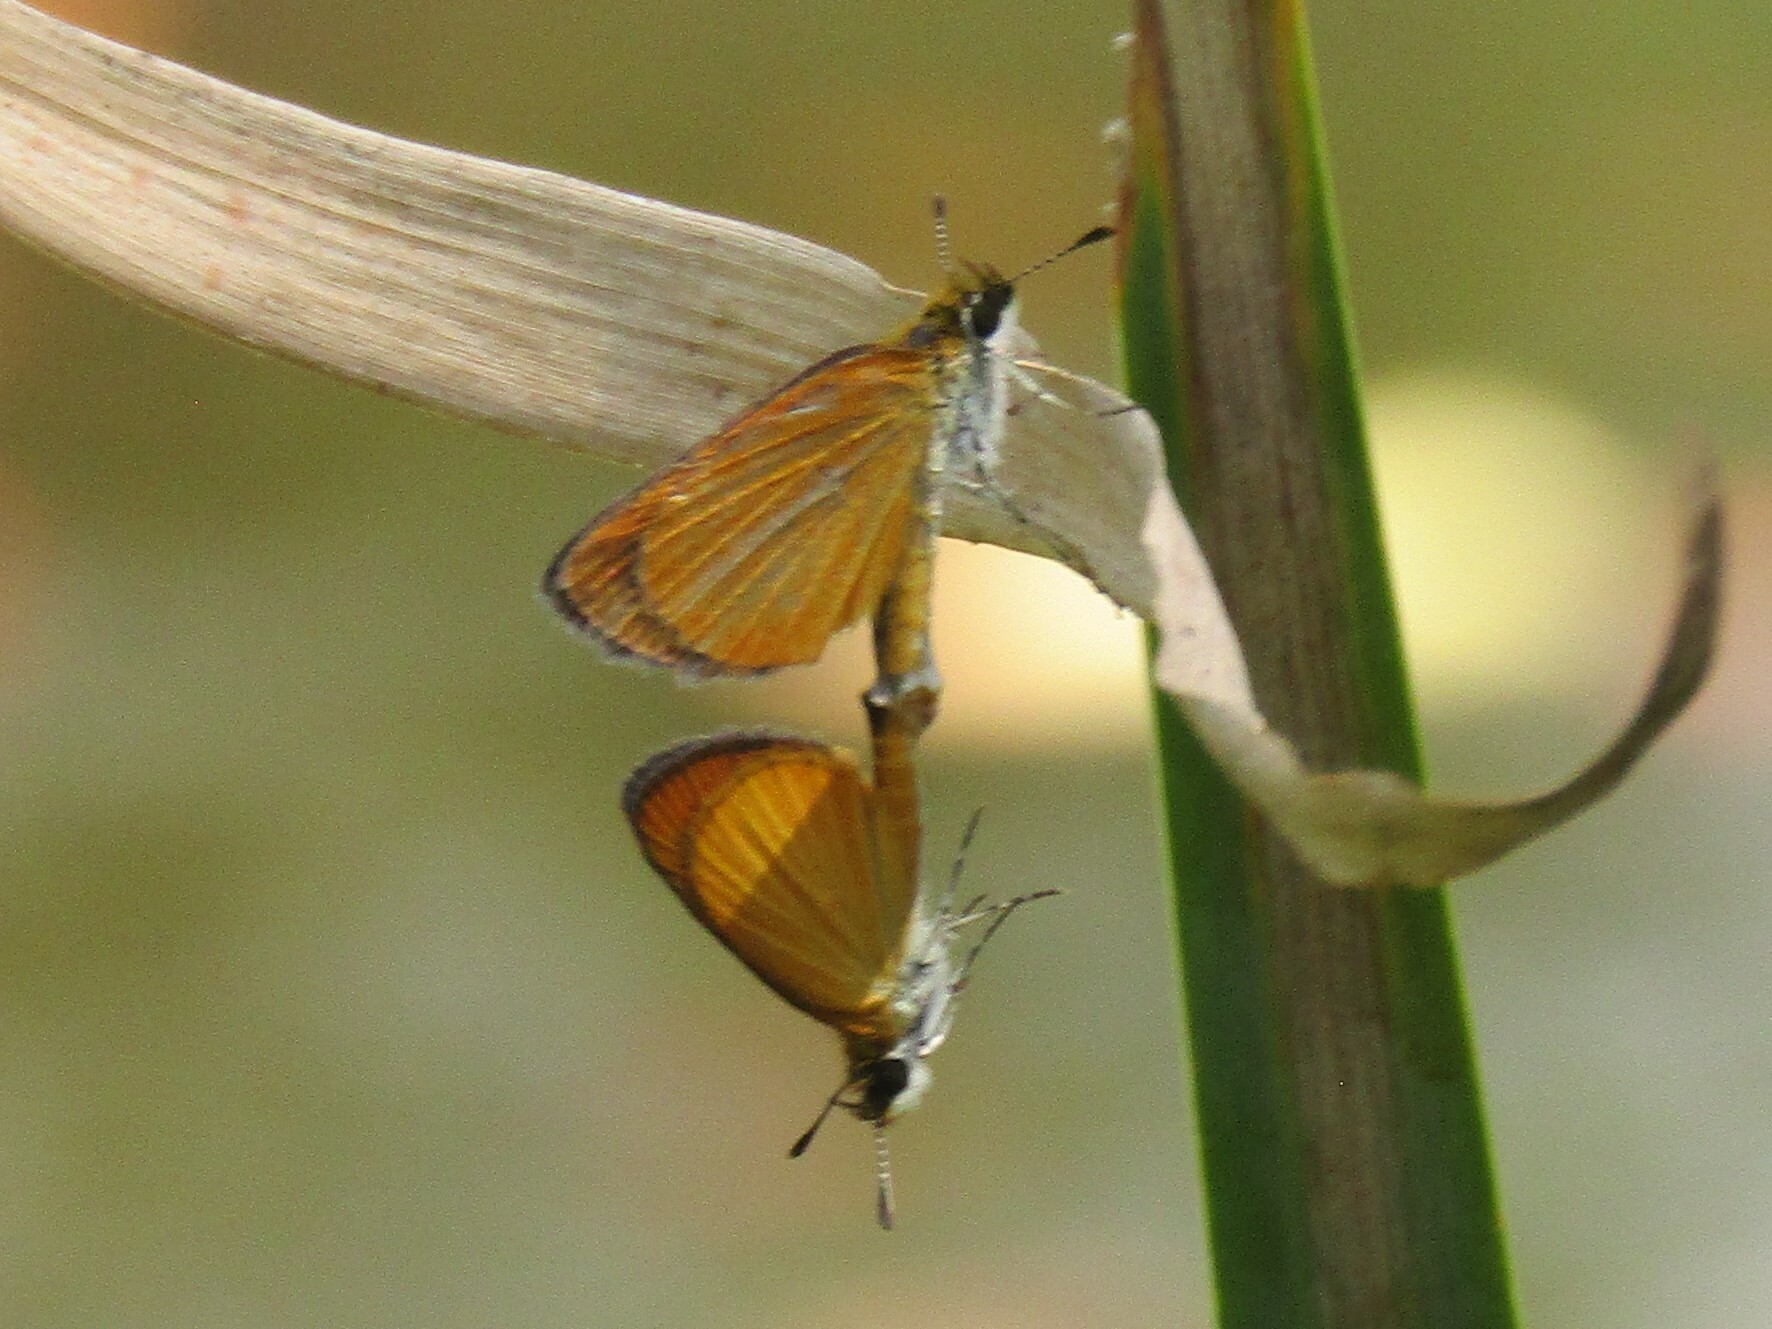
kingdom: Animalia
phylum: Arthropoda
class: Insecta
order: Lepidoptera
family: Hesperiidae
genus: Ancyloxypha
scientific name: Ancyloxypha numitor
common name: Least skipper
